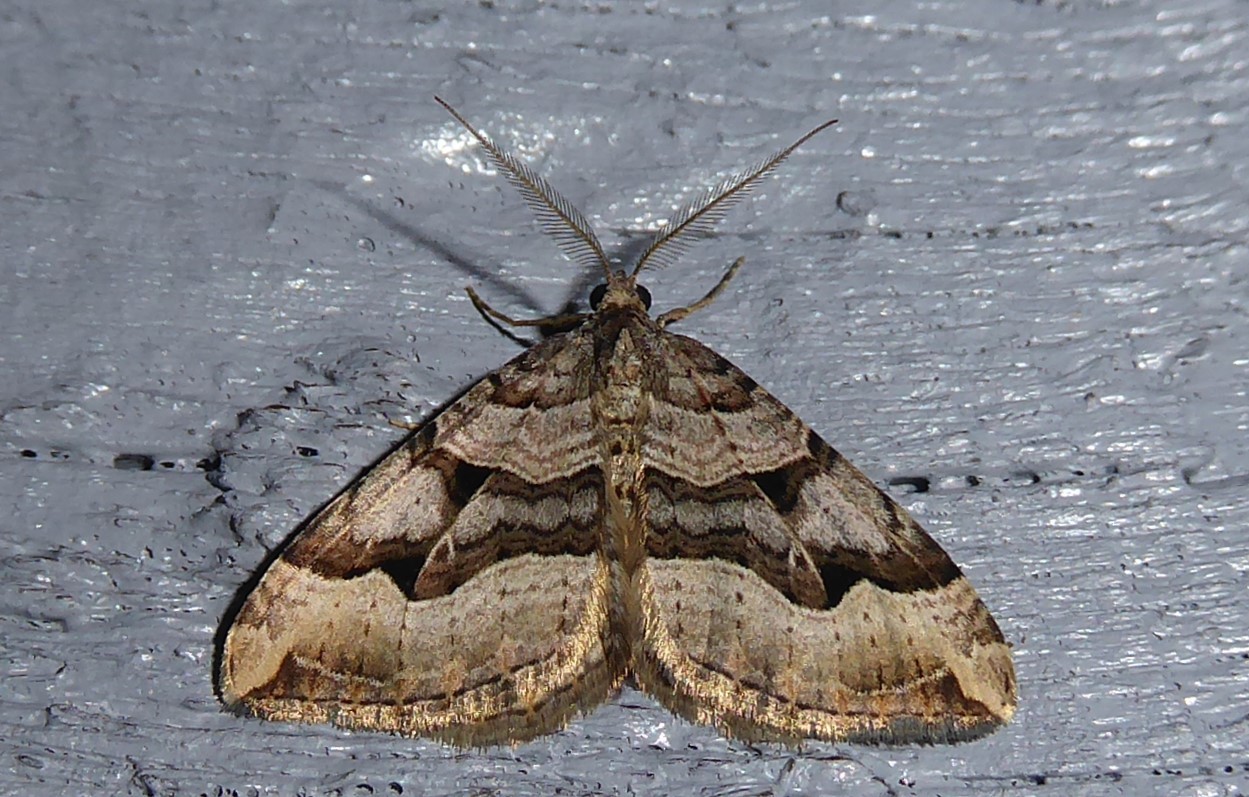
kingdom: Animalia
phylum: Arthropoda
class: Insecta
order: Lepidoptera
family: Geometridae
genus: Xanthorhoe
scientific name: Xanthorhoe semifissata
